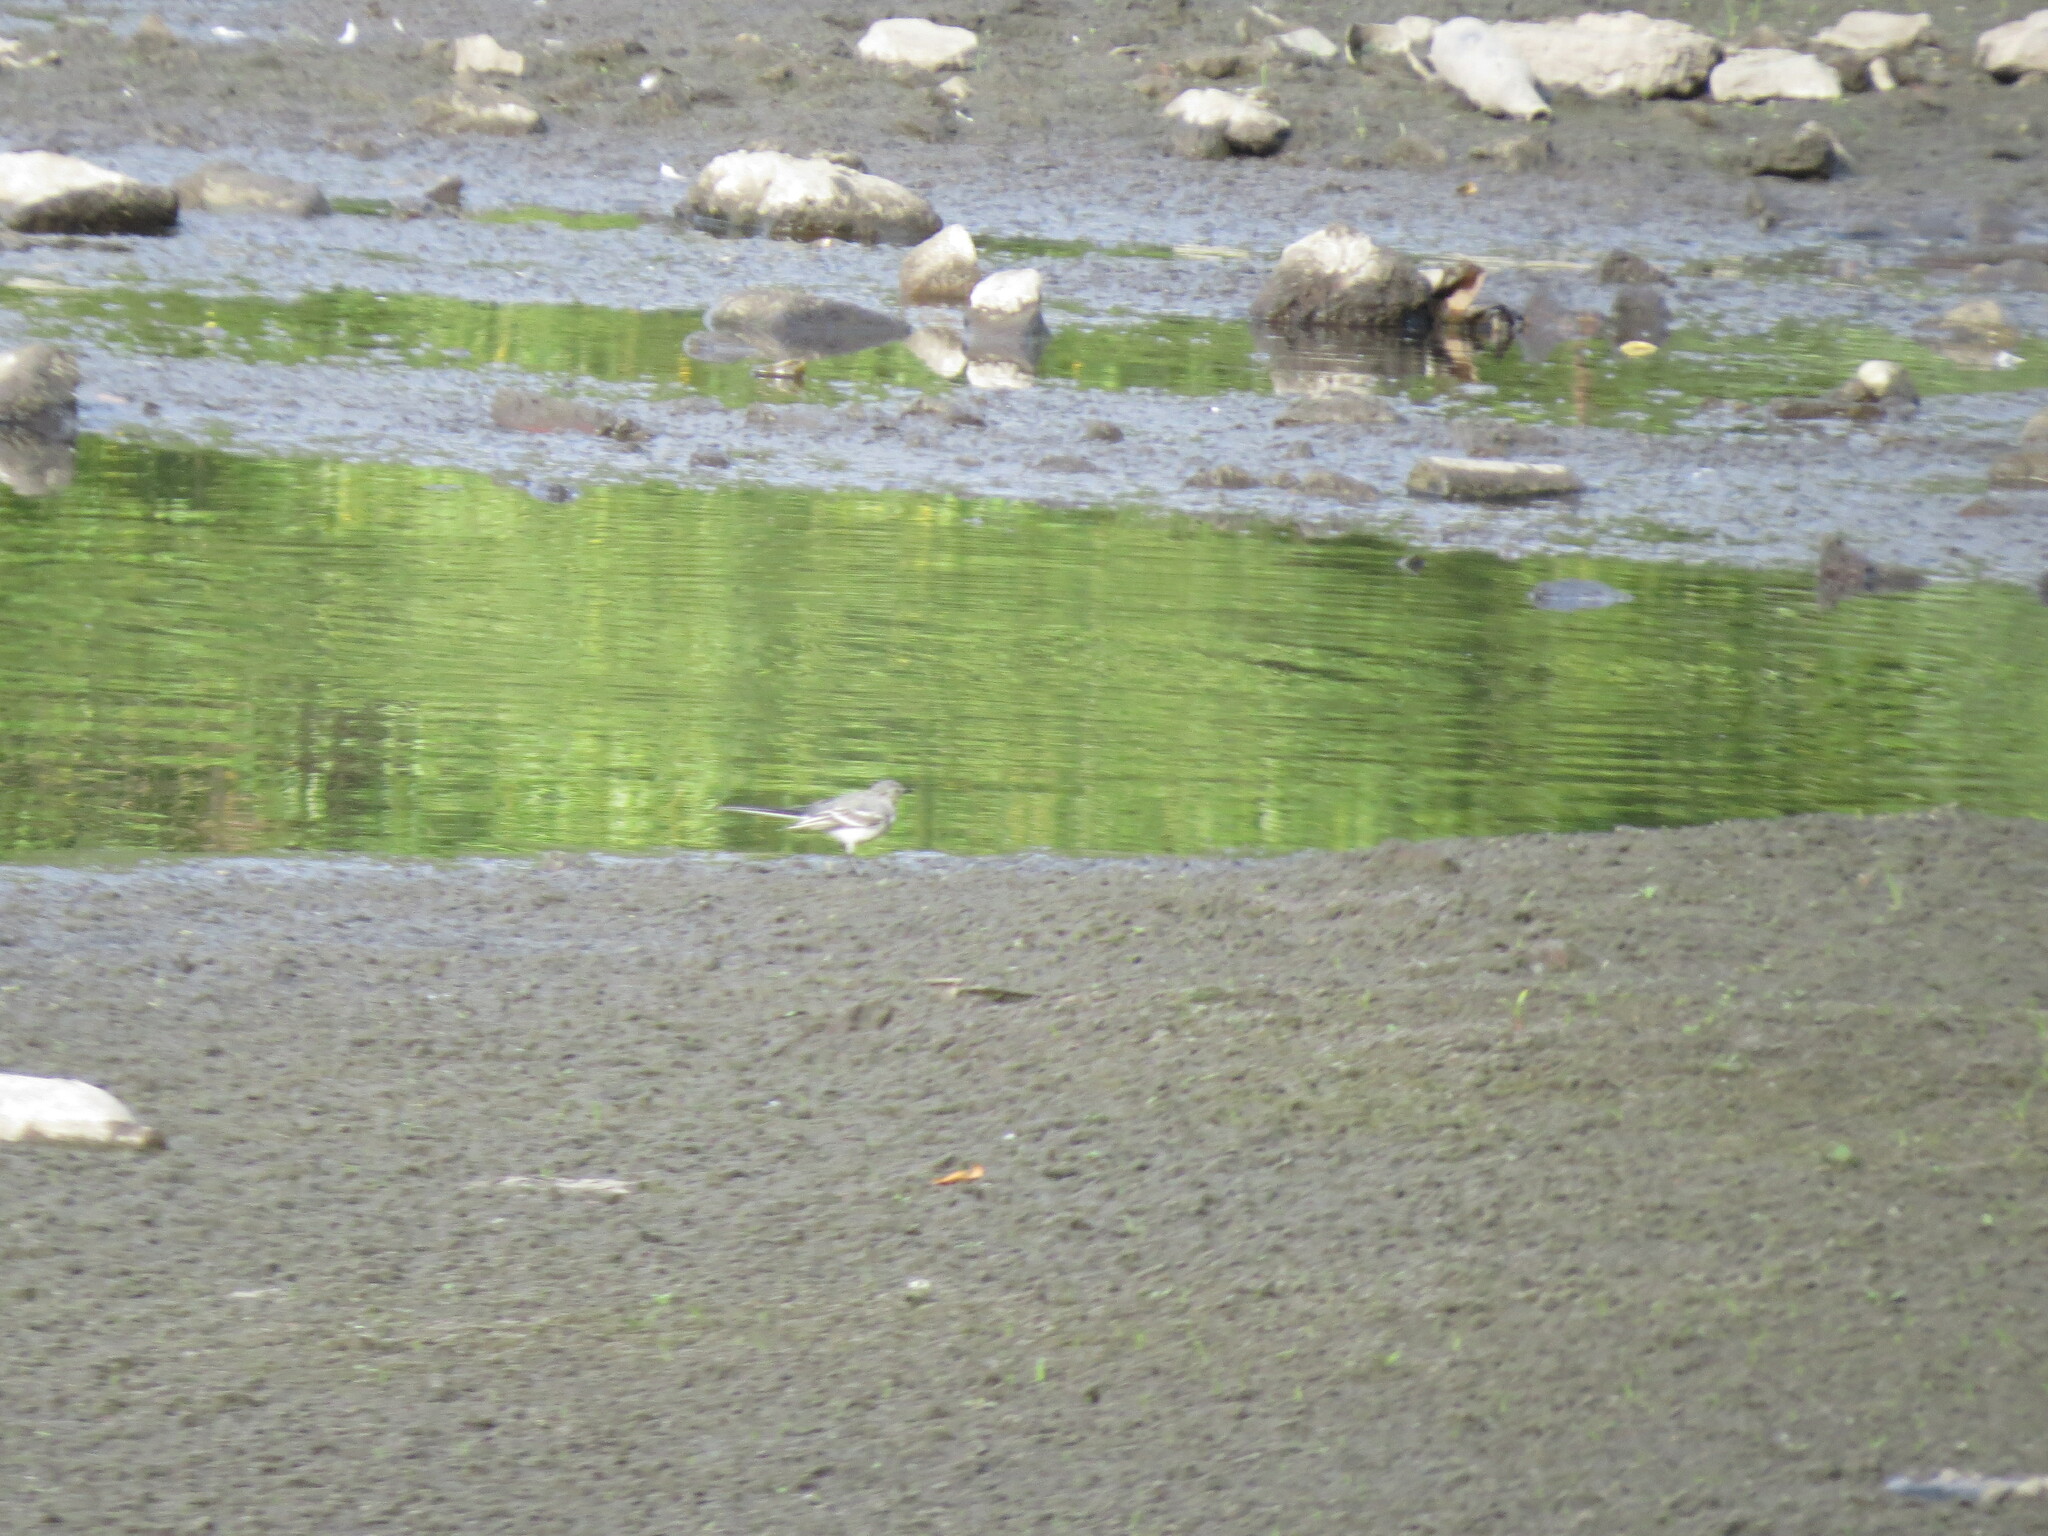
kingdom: Animalia
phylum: Chordata
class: Aves
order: Passeriformes
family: Motacillidae
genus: Motacilla
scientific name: Motacilla alba
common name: White wagtail
